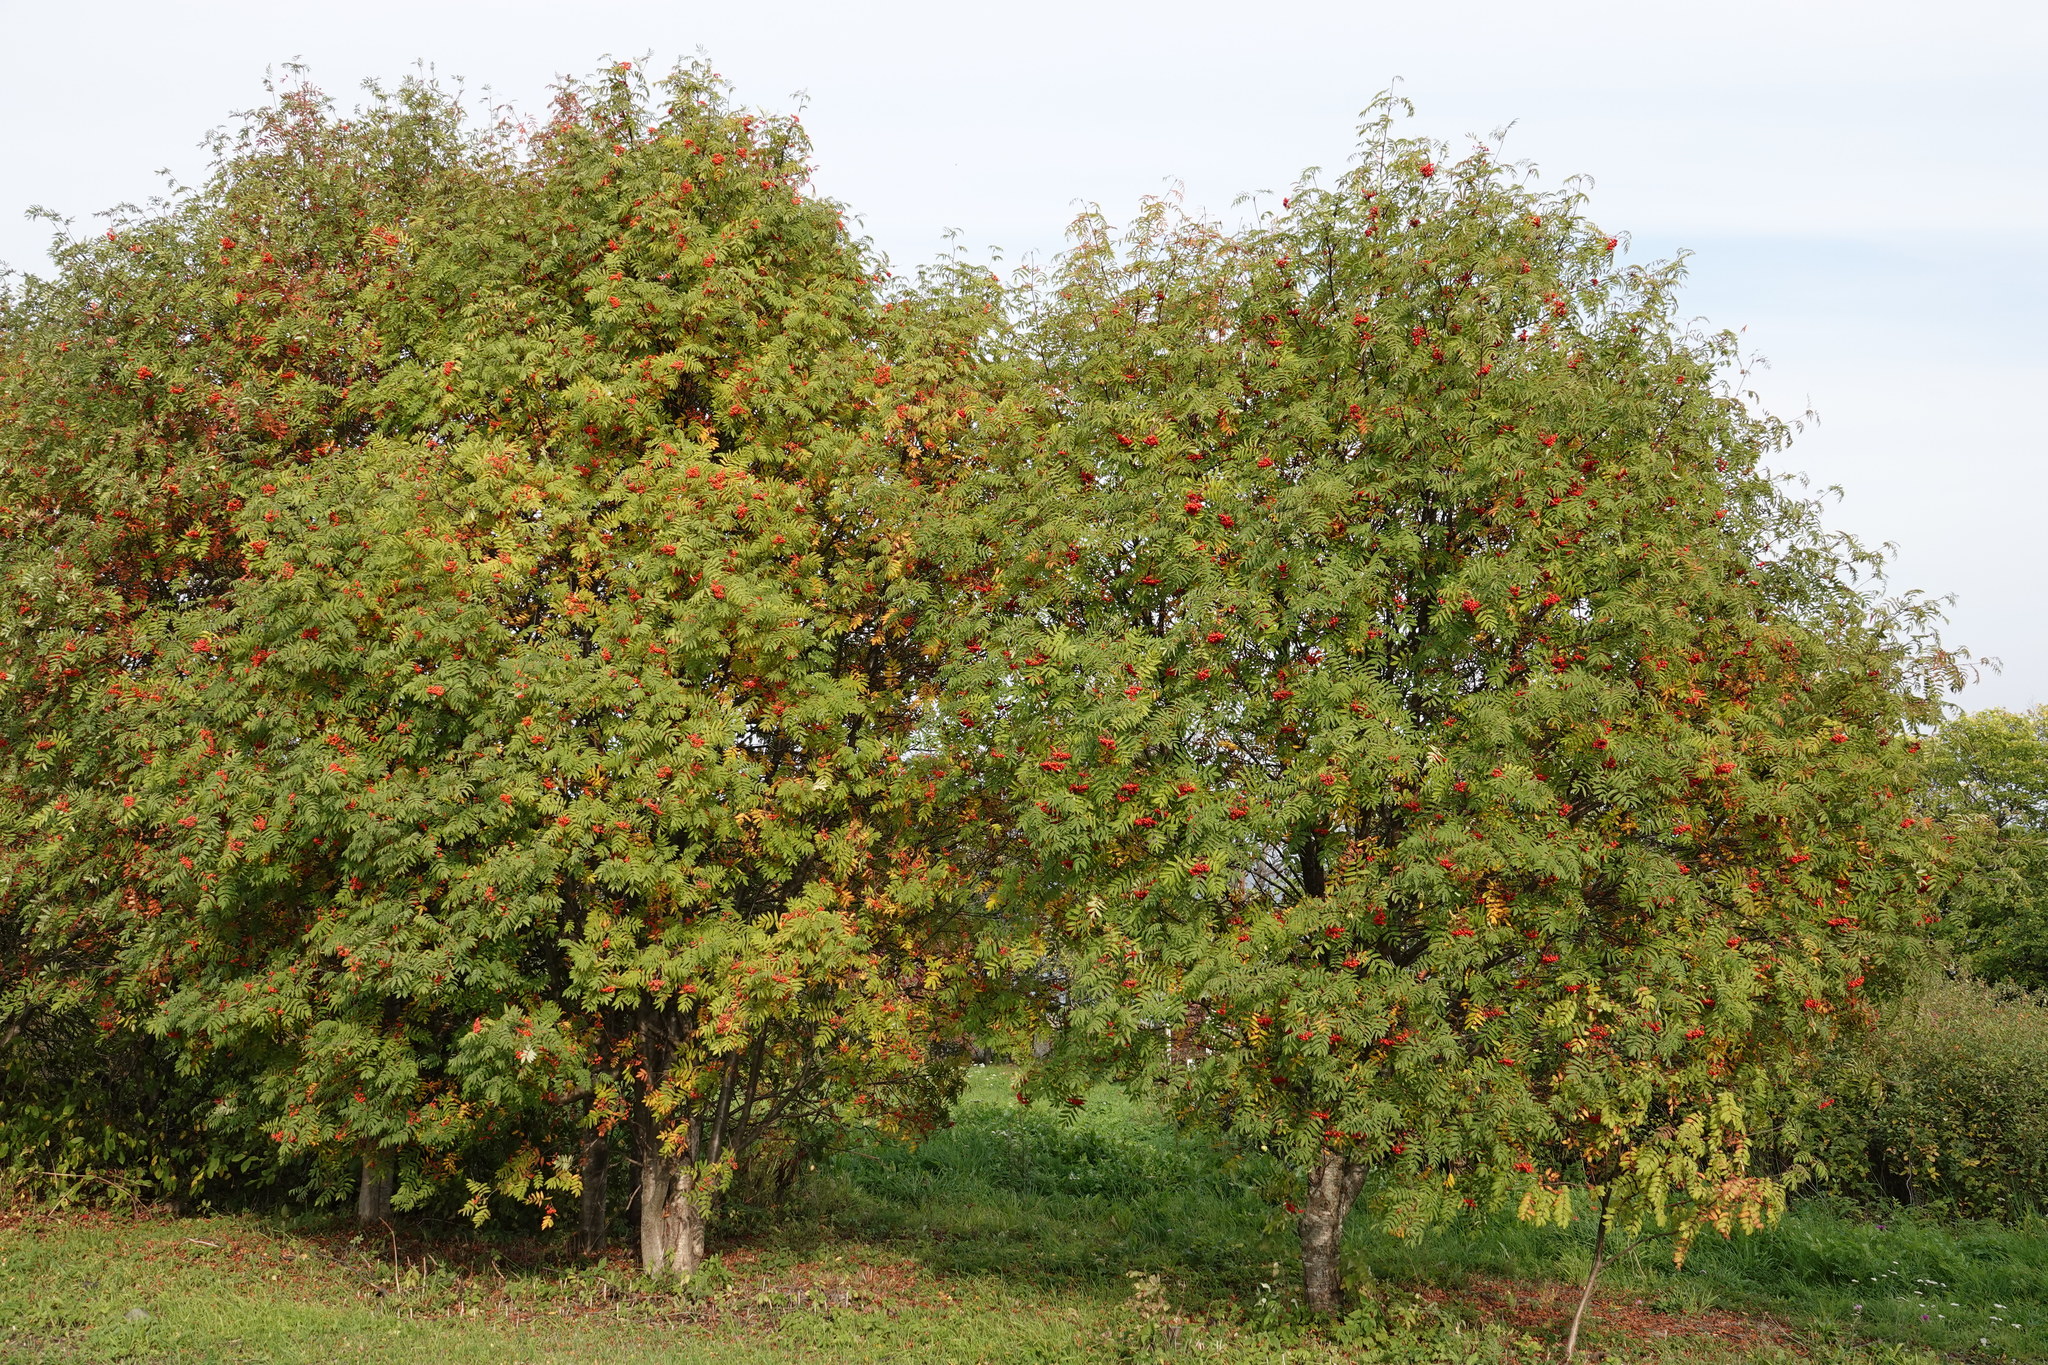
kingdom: Plantae
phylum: Tracheophyta
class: Magnoliopsida
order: Rosales
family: Rosaceae
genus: Sorbus
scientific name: Sorbus aucuparia
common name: Rowan
